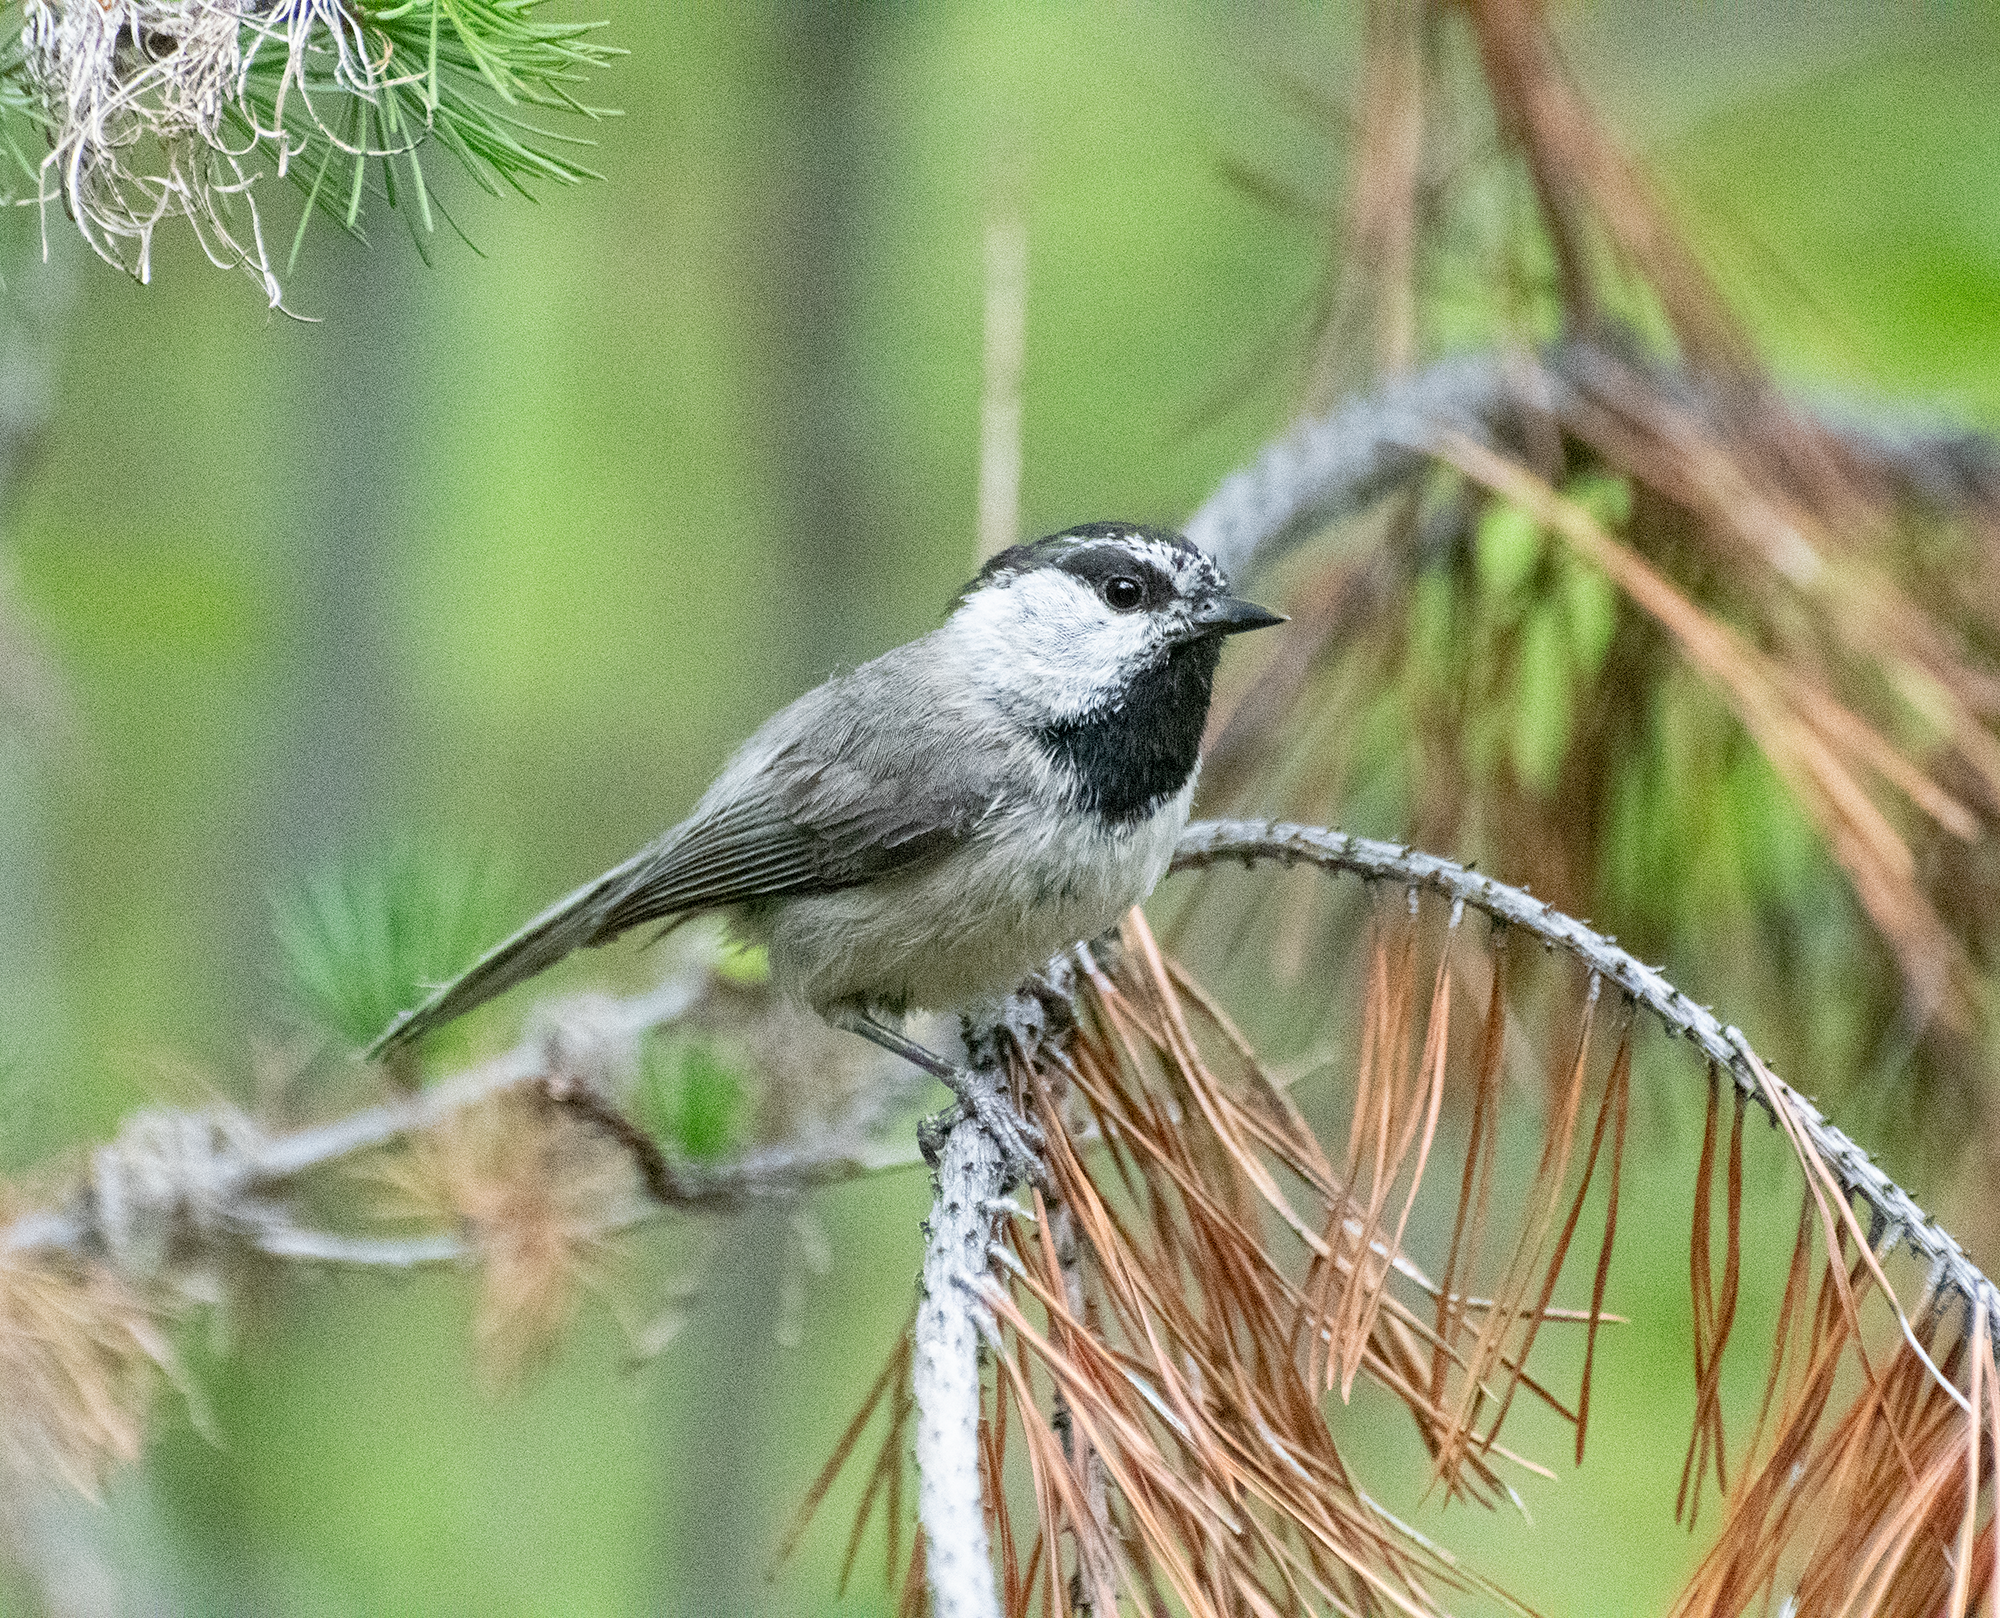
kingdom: Animalia
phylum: Chordata
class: Aves
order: Passeriformes
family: Paridae
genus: Poecile
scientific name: Poecile gambeli
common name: Mountain chickadee
